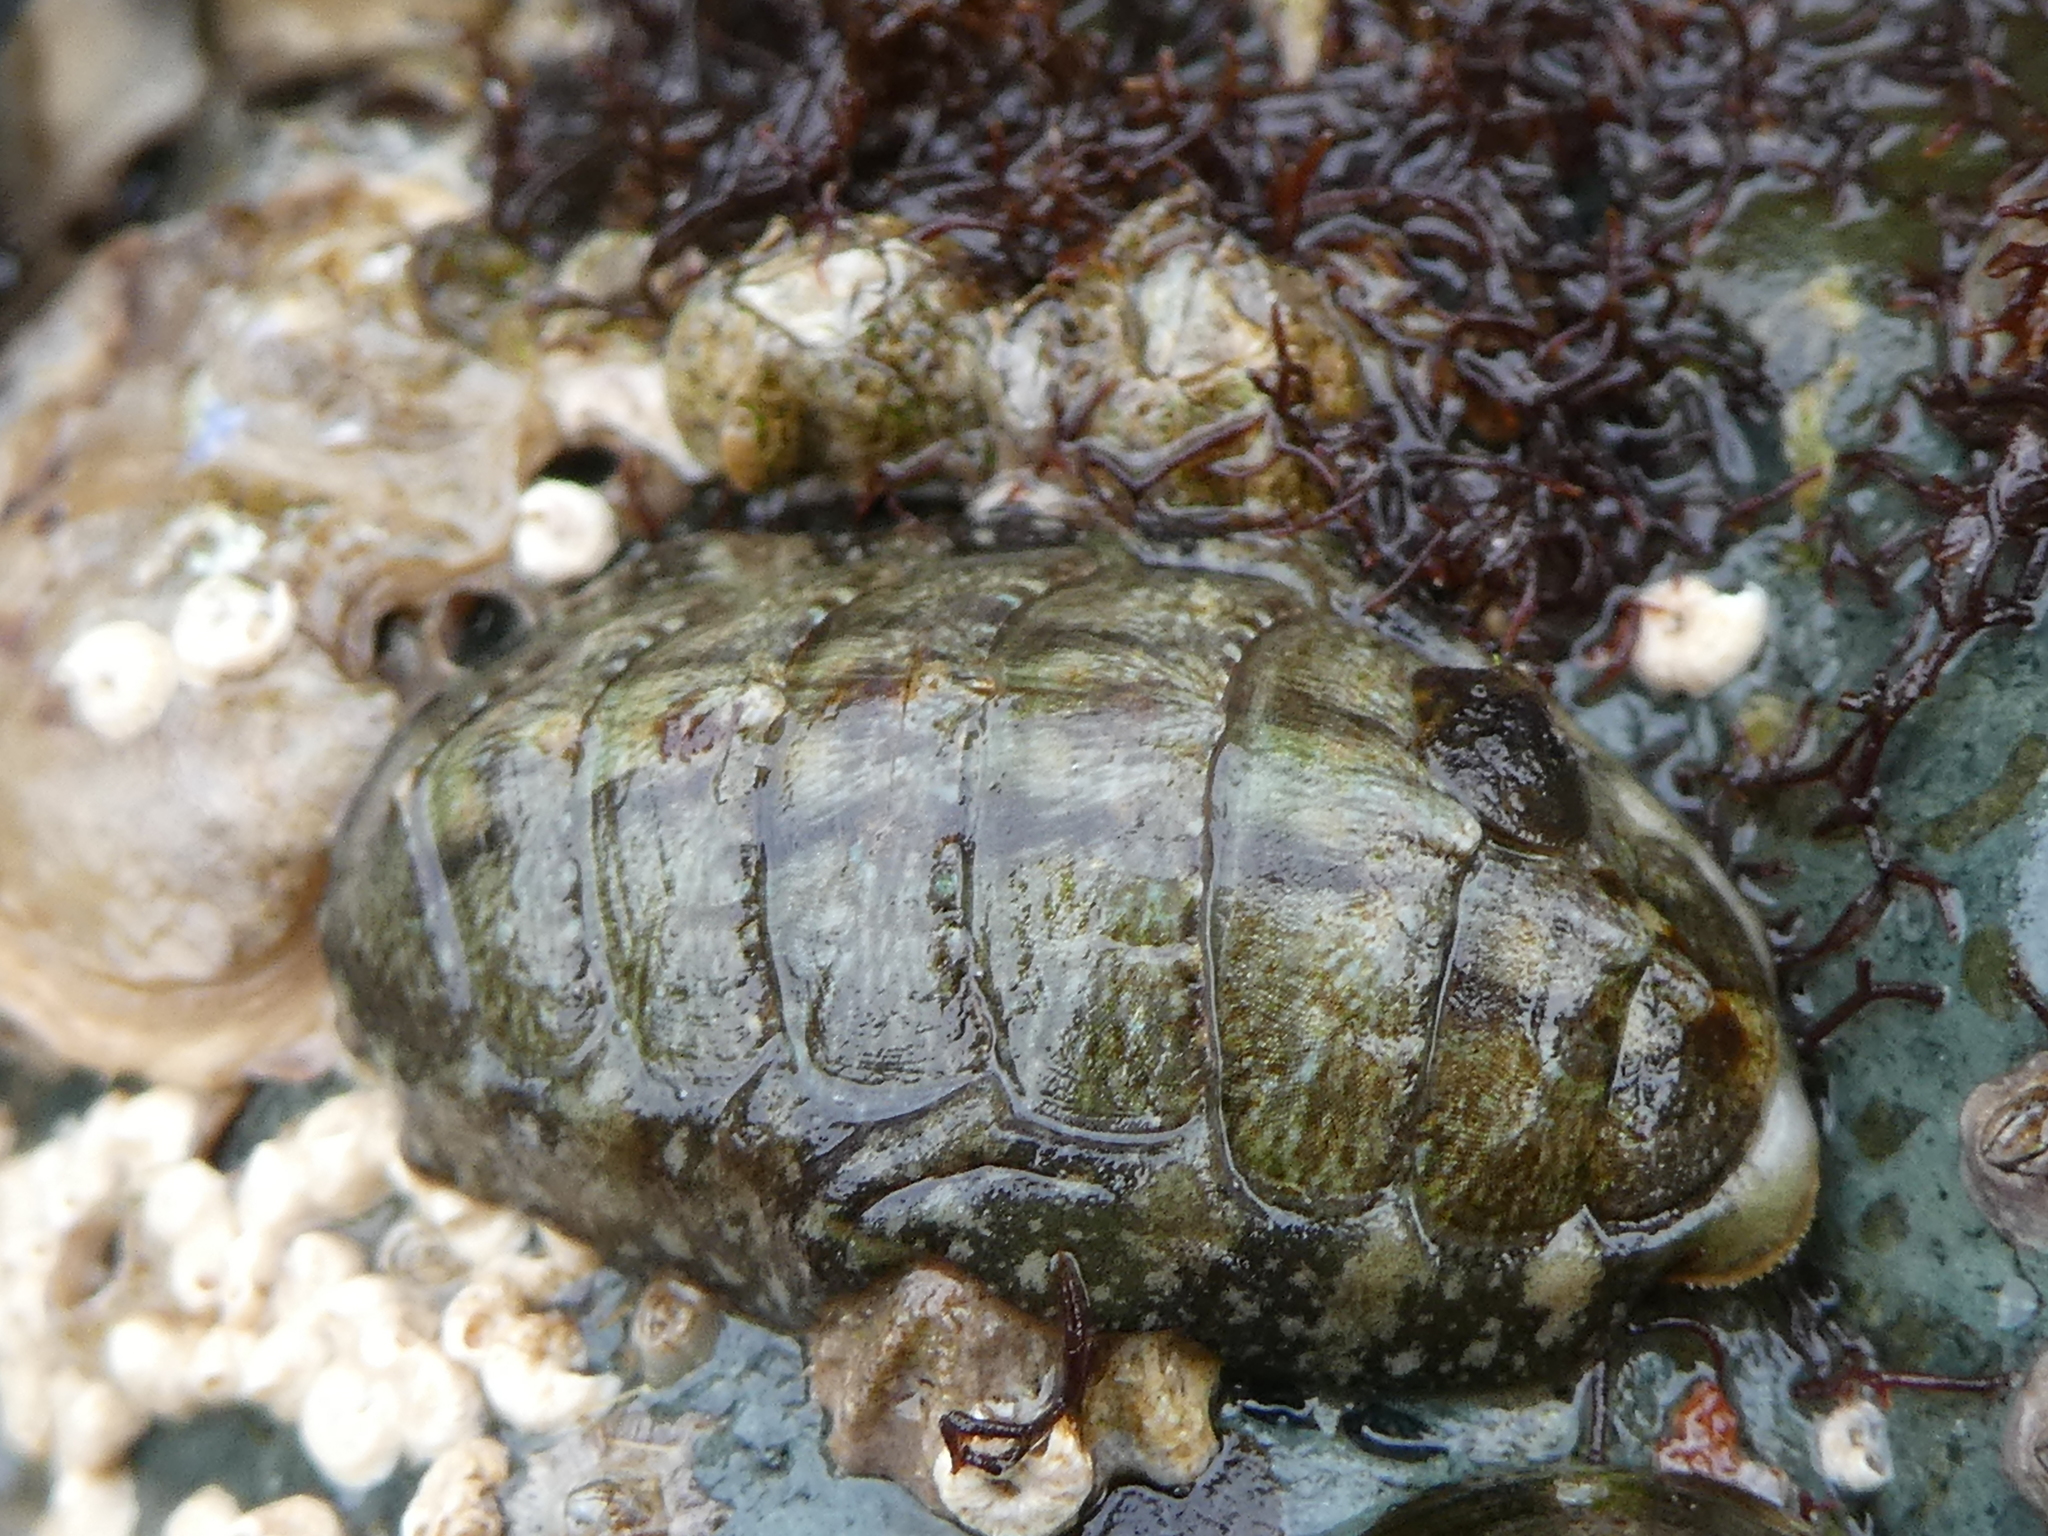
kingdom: Animalia
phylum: Mollusca
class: Polyplacophora
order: Chitonida
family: Tonicellidae
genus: Cyanoplax
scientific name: Cyanoplax dentiens
